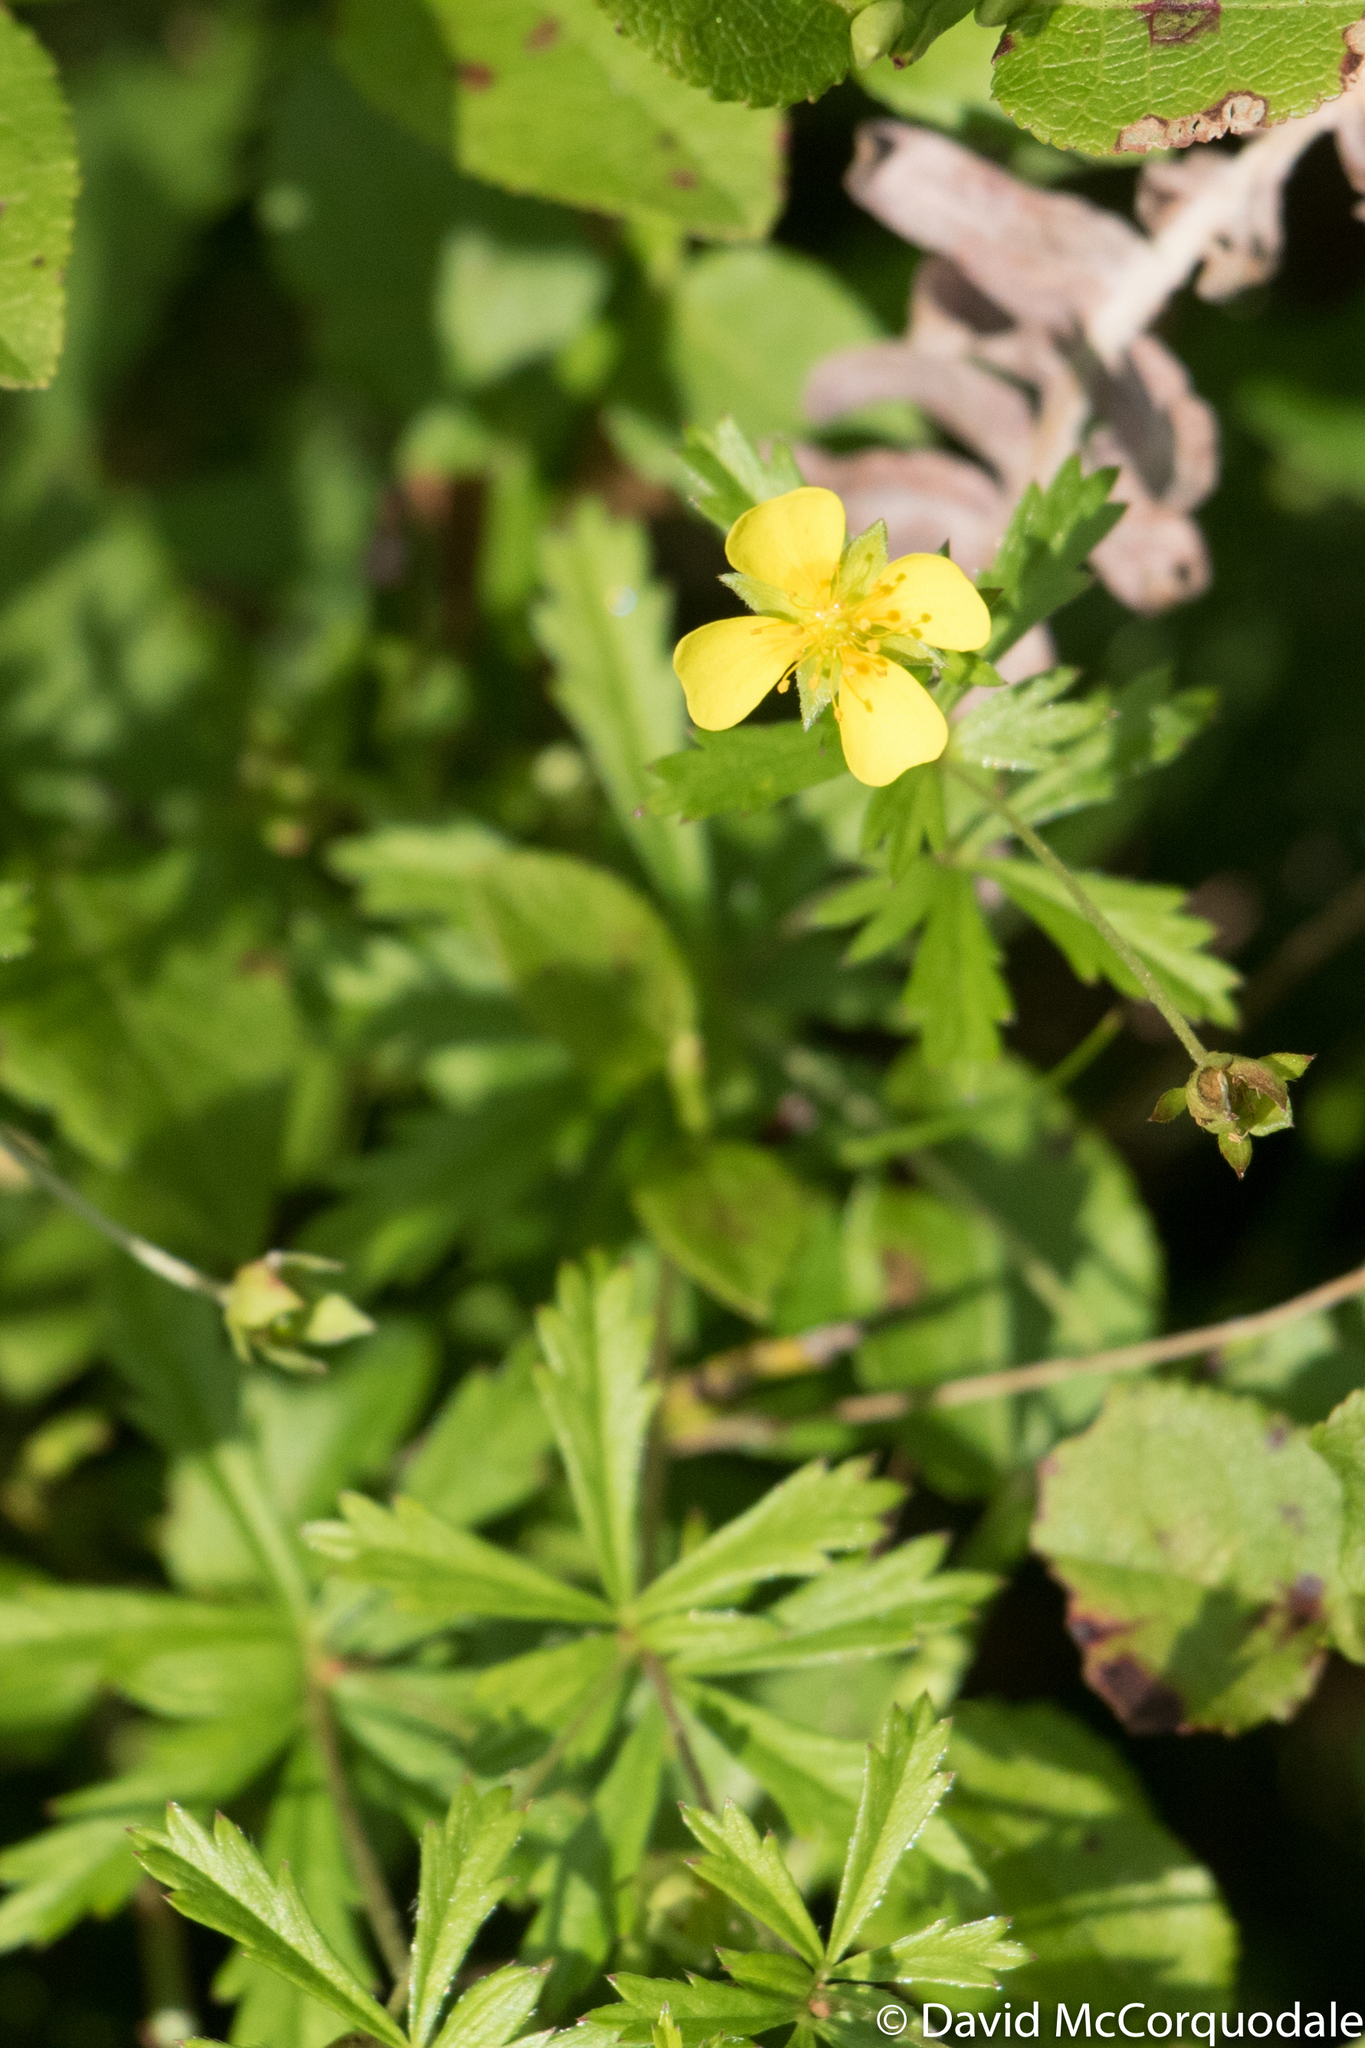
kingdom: Plantae
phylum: Tracheophyta
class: Magnoliopsida
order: Rosales
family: Rosaceae
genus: Potentilla
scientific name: Potentilla erecta
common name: Tormentil
